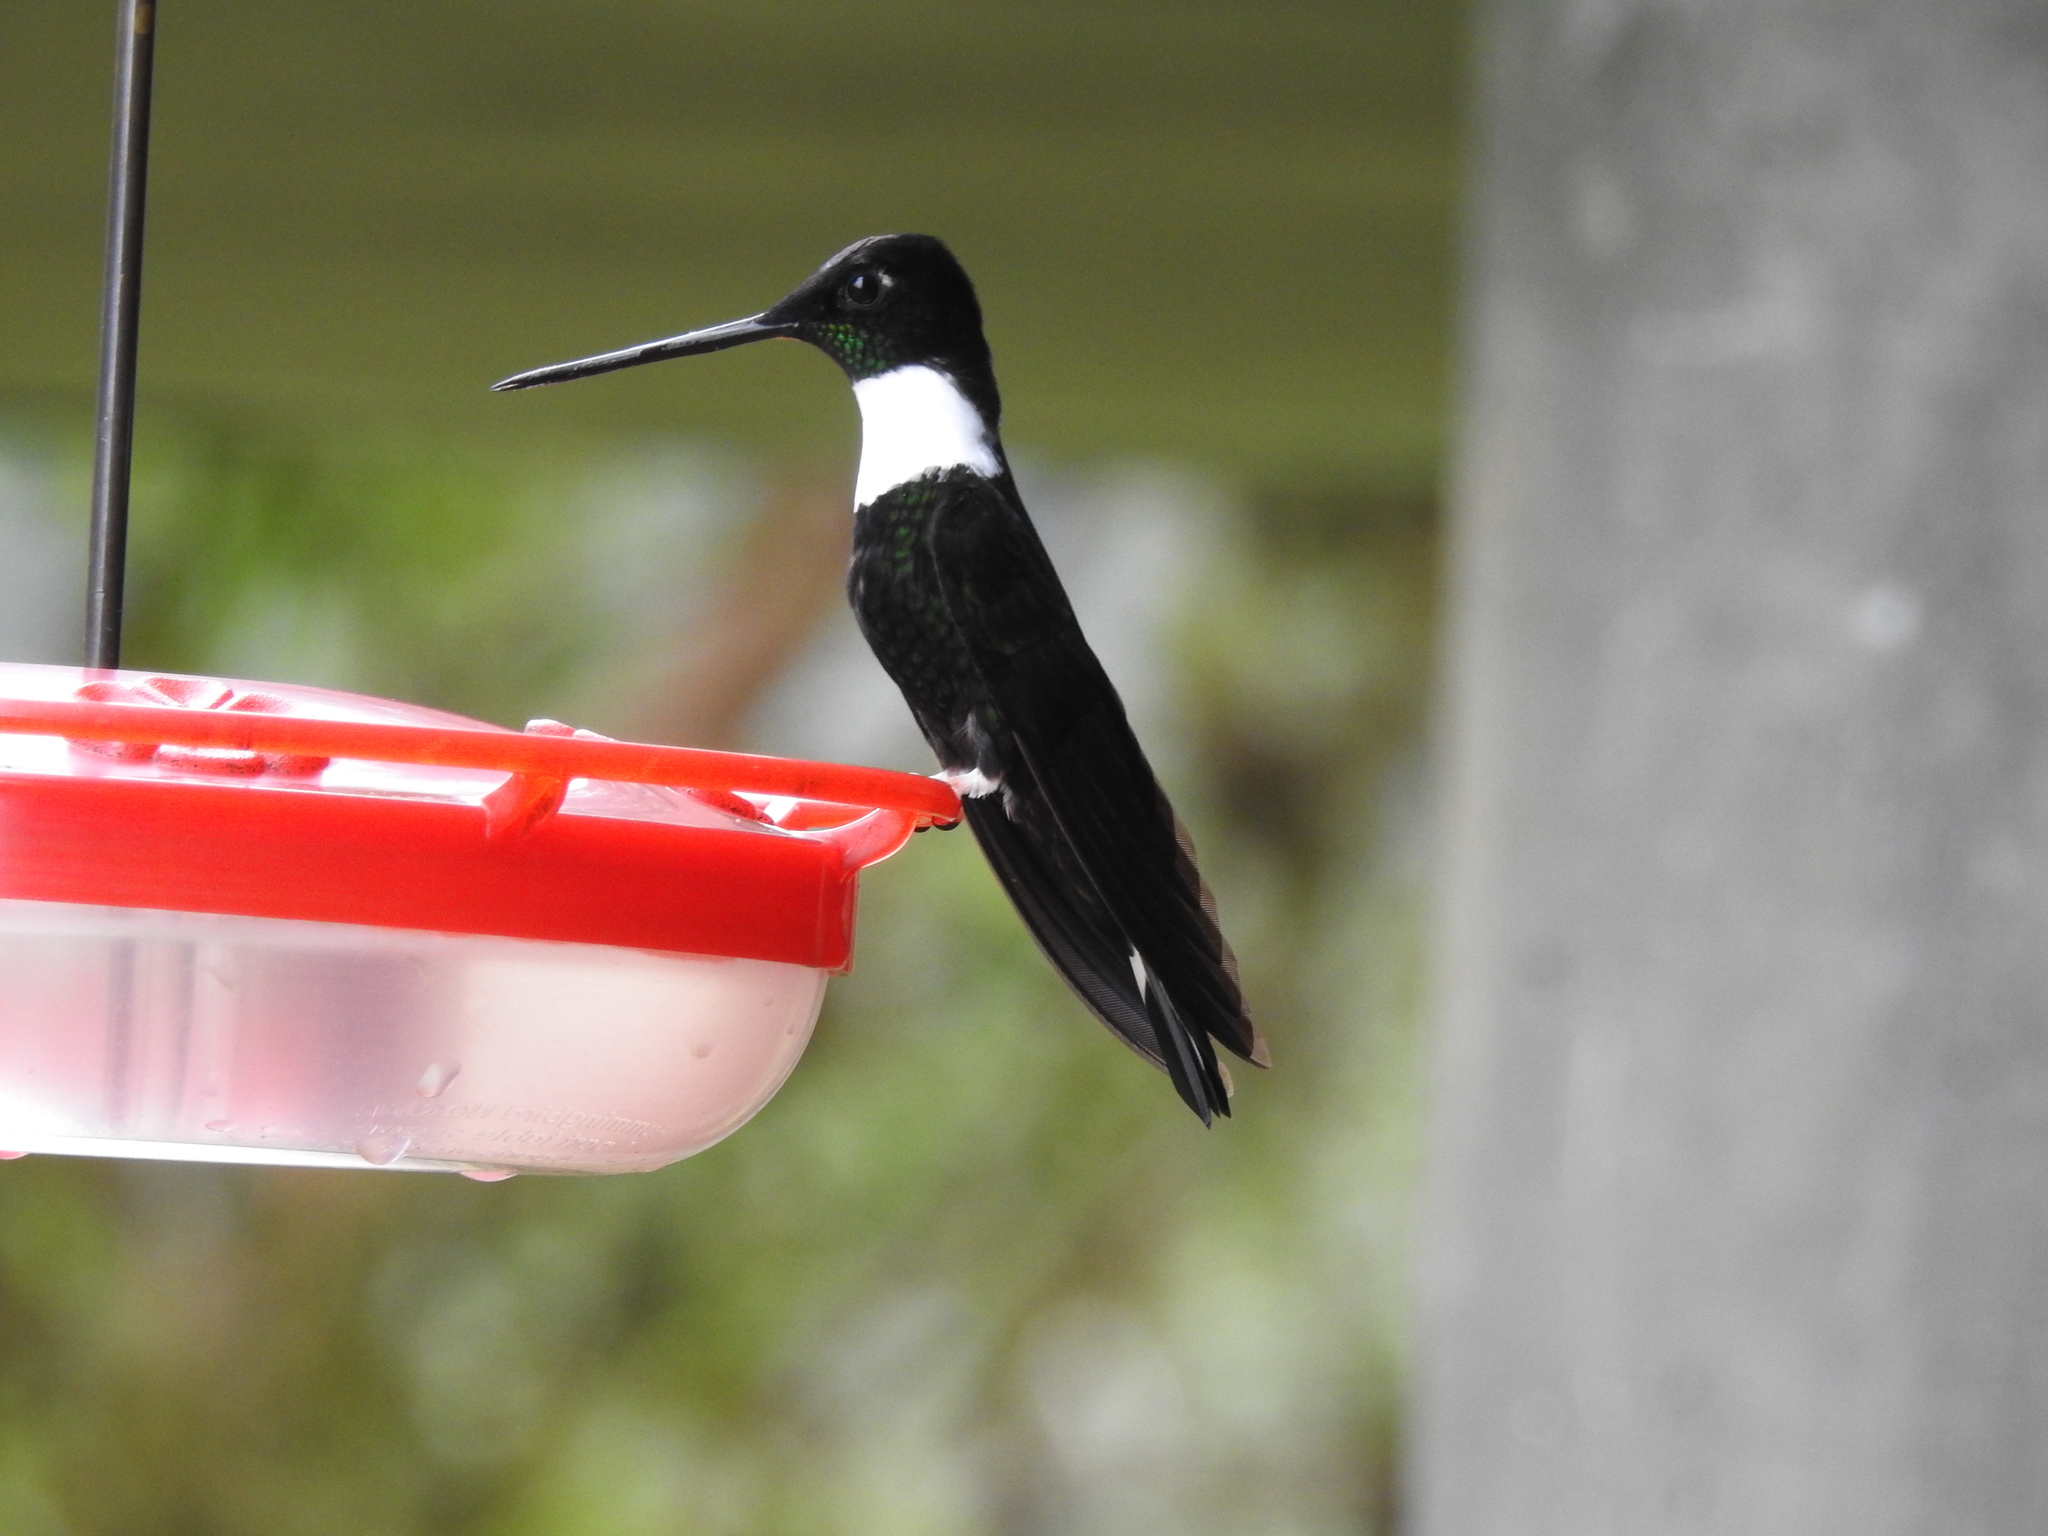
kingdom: Animalia
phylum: Chordata
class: Aves
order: Apodiformes
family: Trochilidae
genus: Coeligena
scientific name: Coeligena torquata
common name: Collared inca
